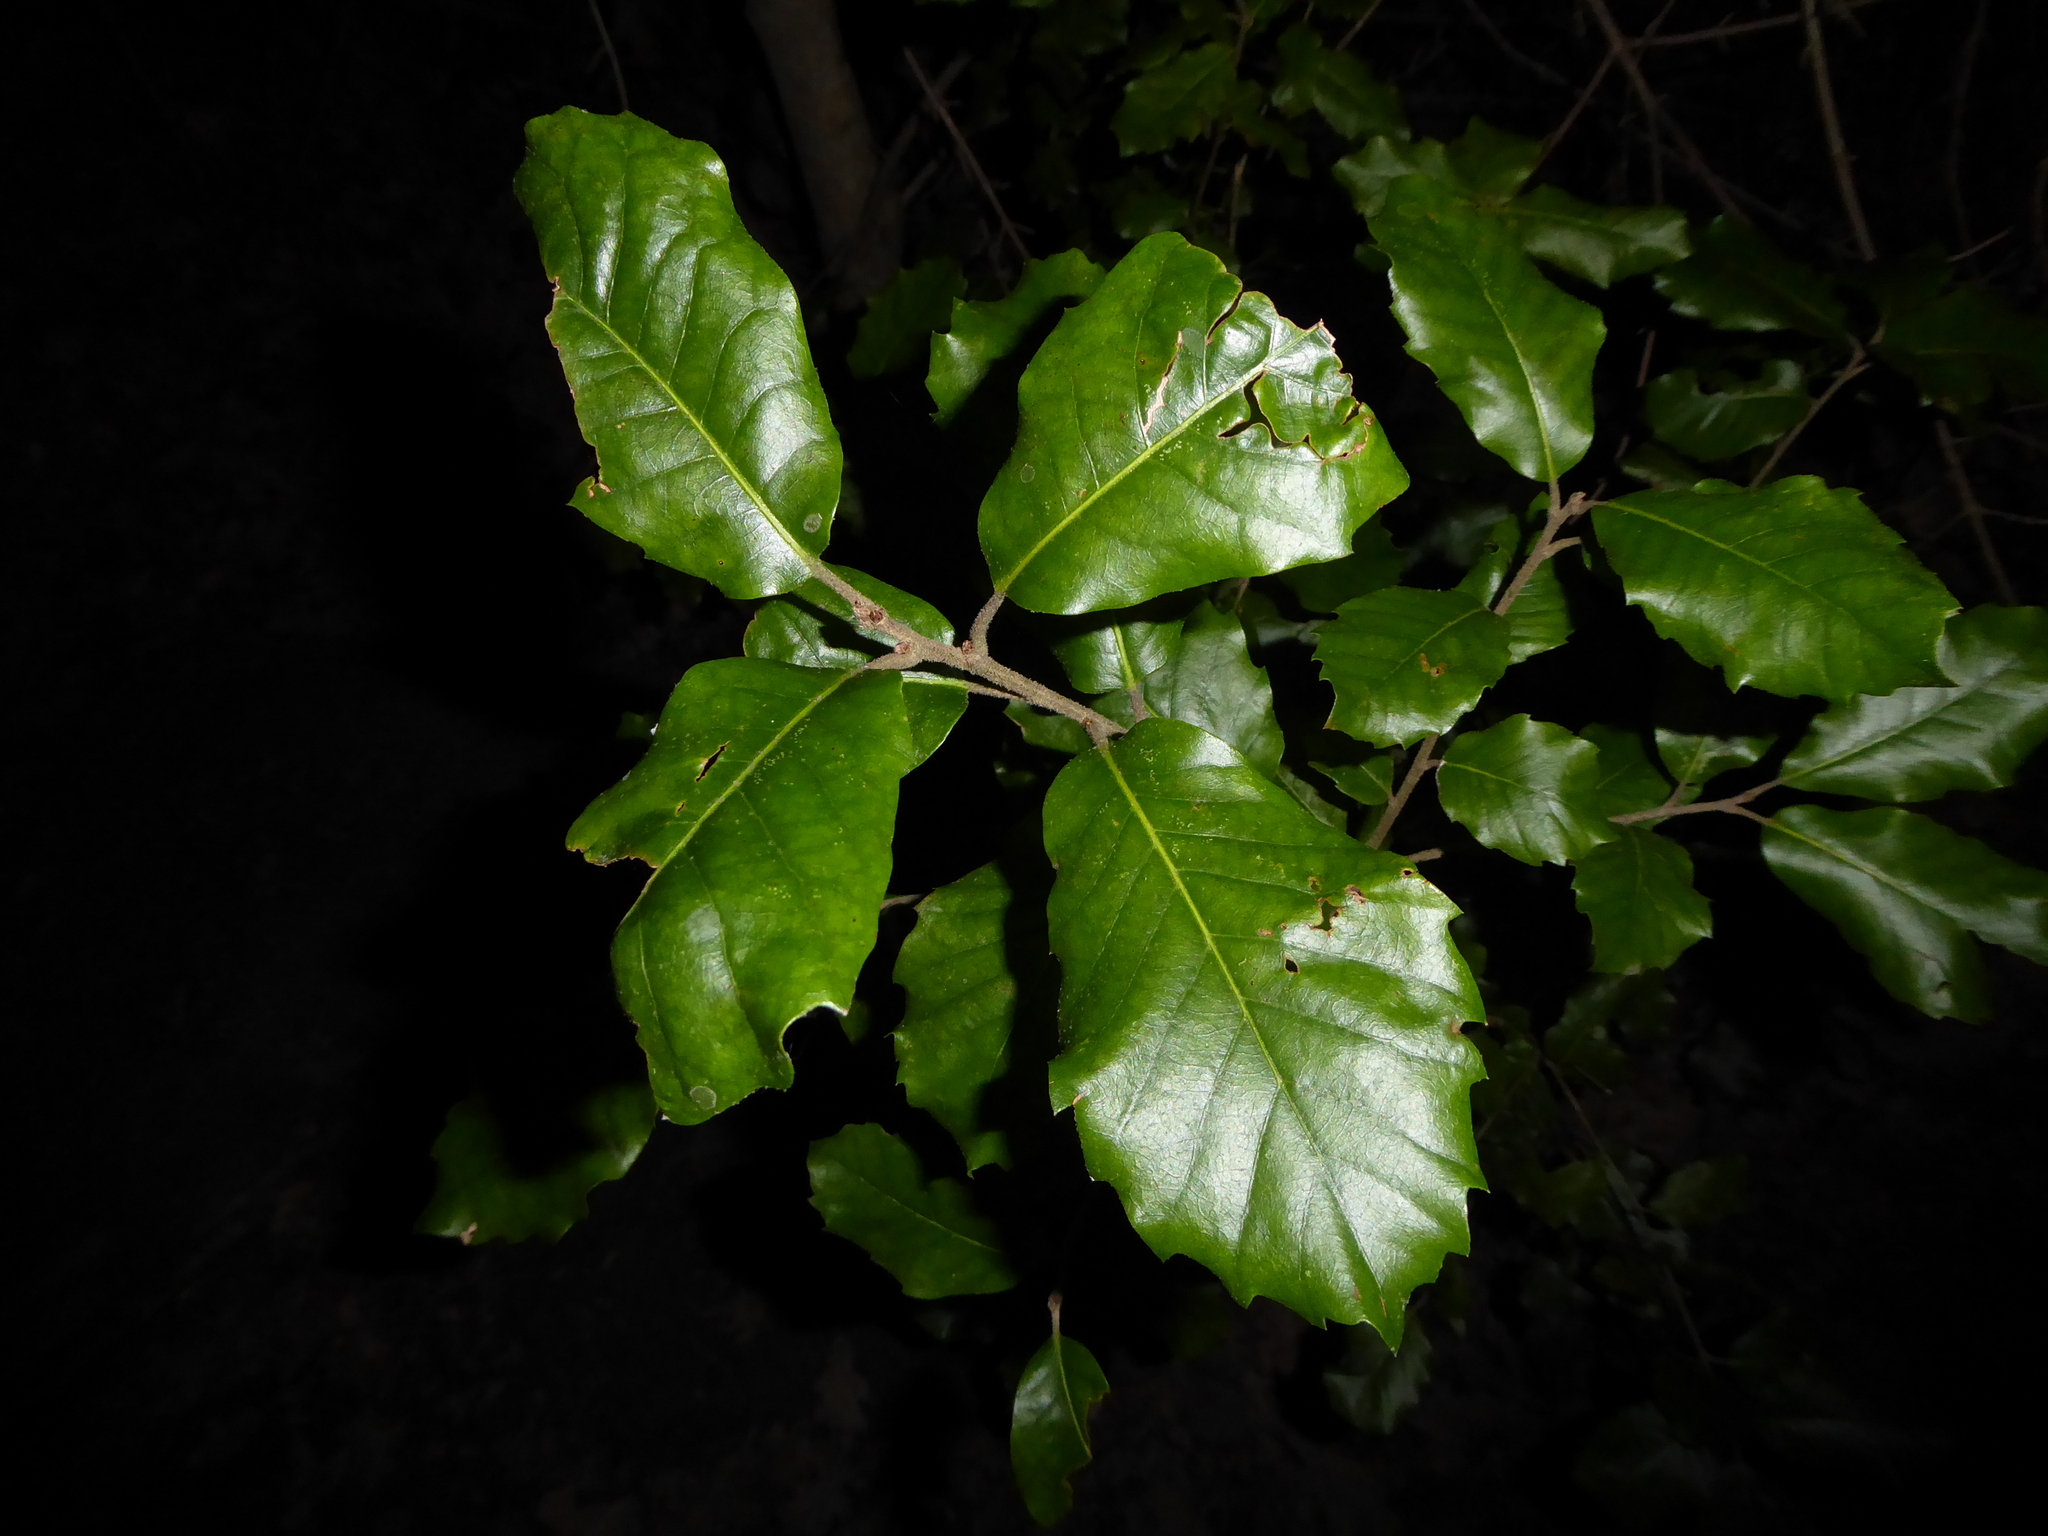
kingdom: Plantae
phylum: Tracheophyta
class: Magnoliopsida
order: Fagales
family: Fagaceae
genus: Quercus
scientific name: Quercus ilex
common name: Evergreen oak
